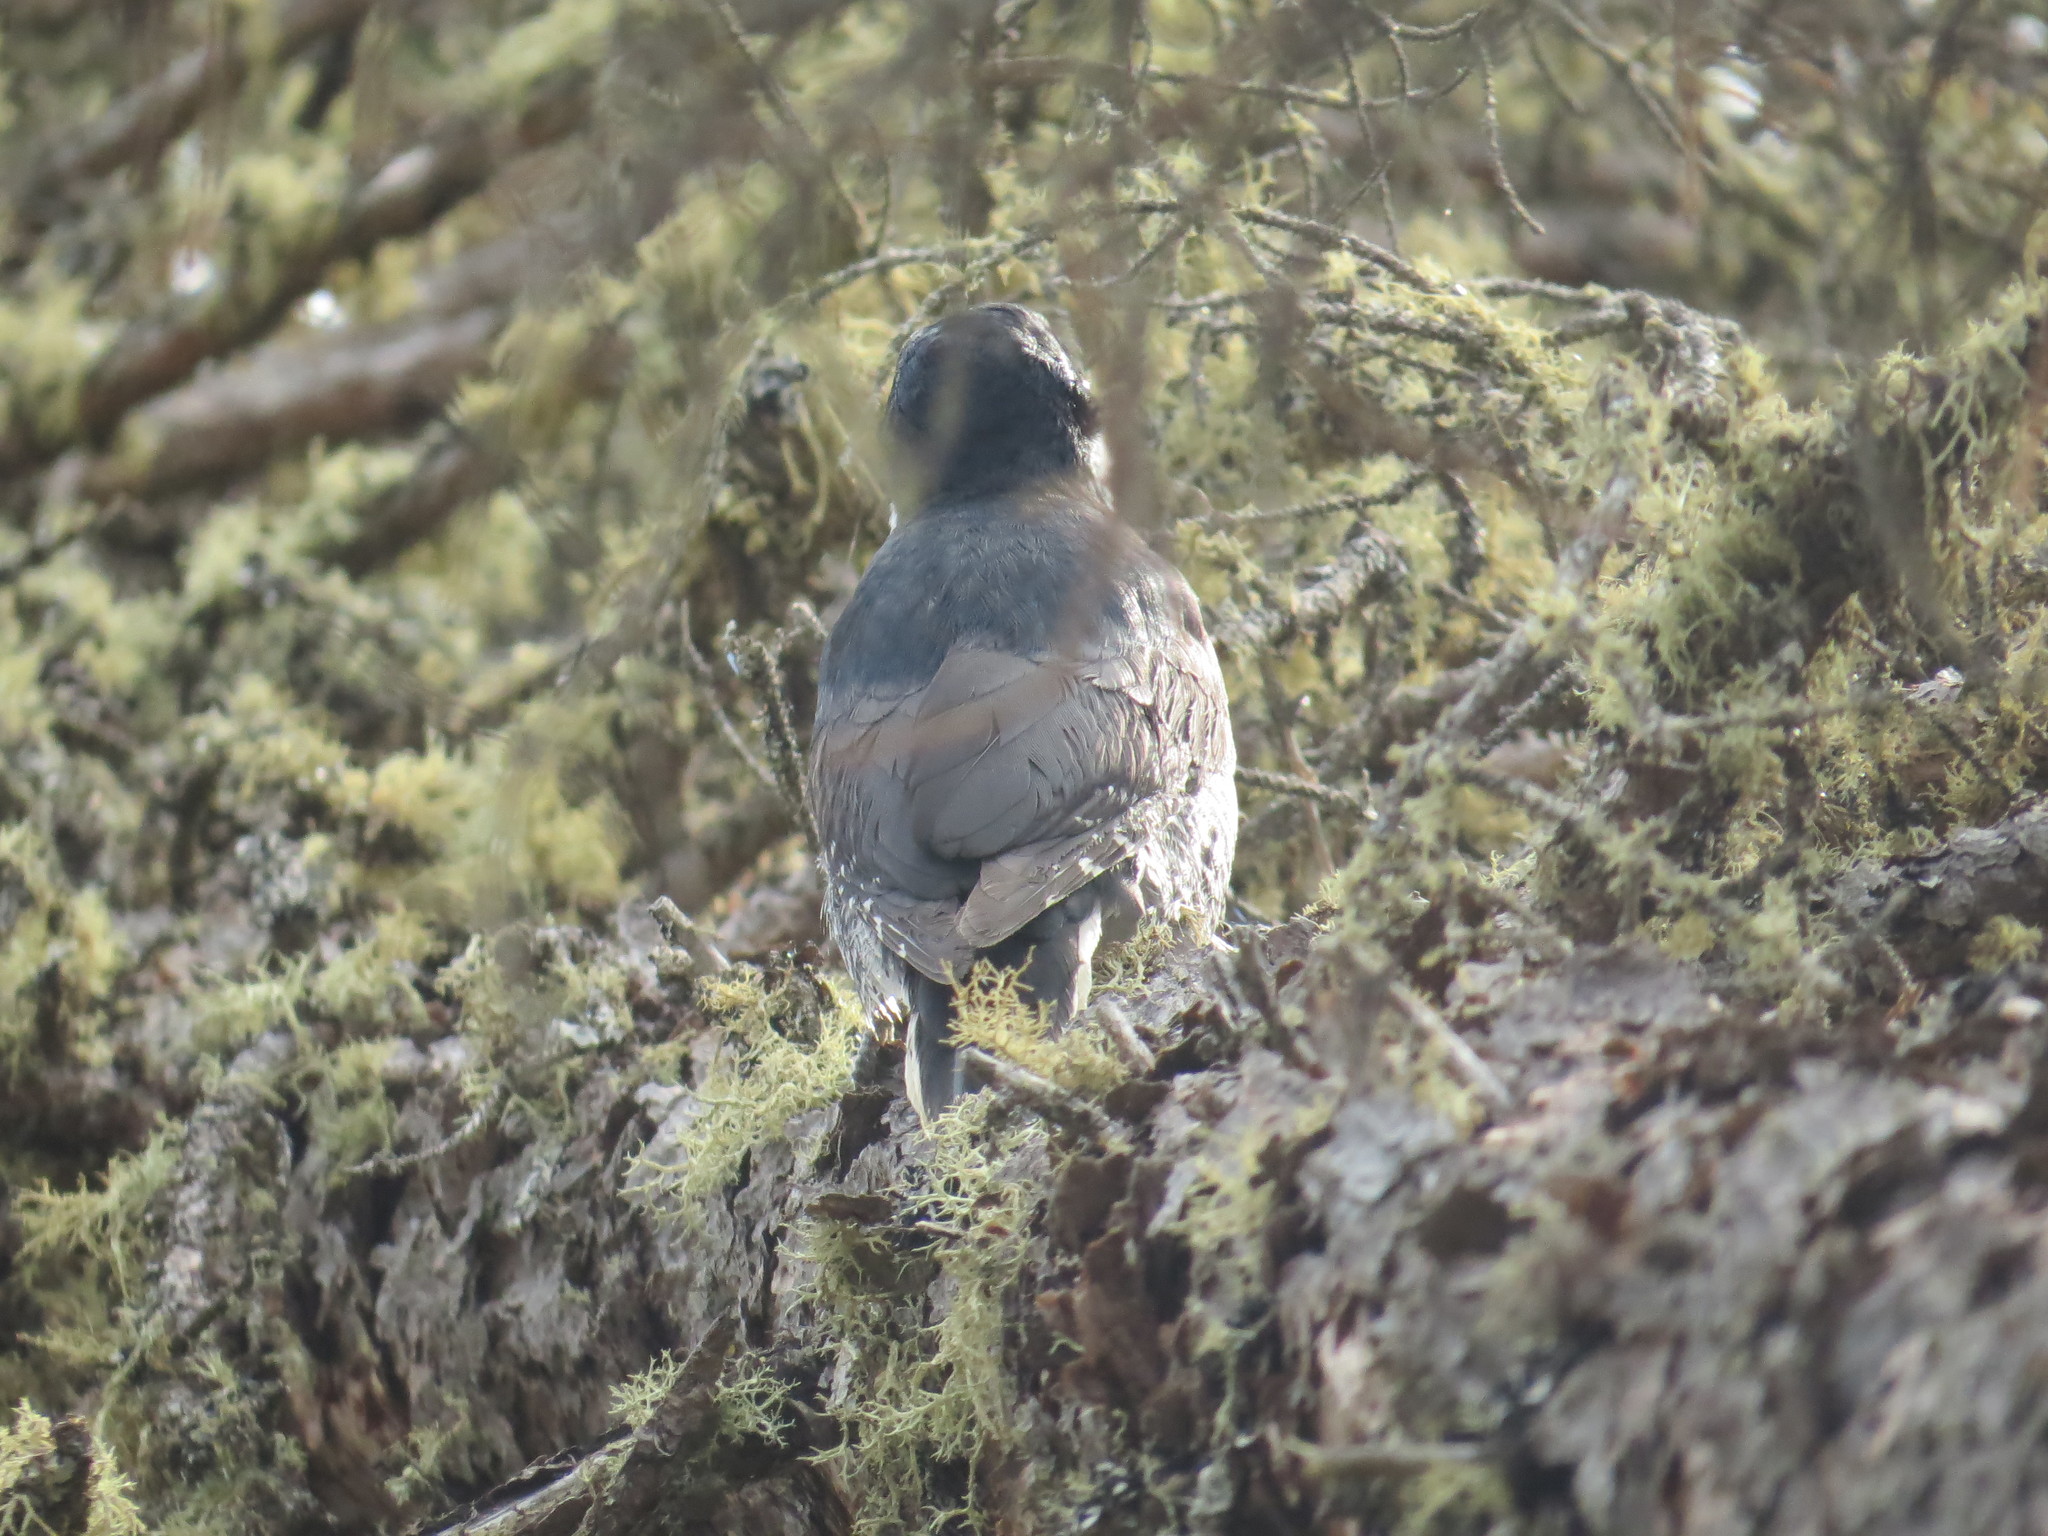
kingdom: Animalia
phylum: Chordata
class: Aves
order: Piciformes
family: Picidae
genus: Picoides
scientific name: Picoides arcticus
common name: Black-backed woodpecker
